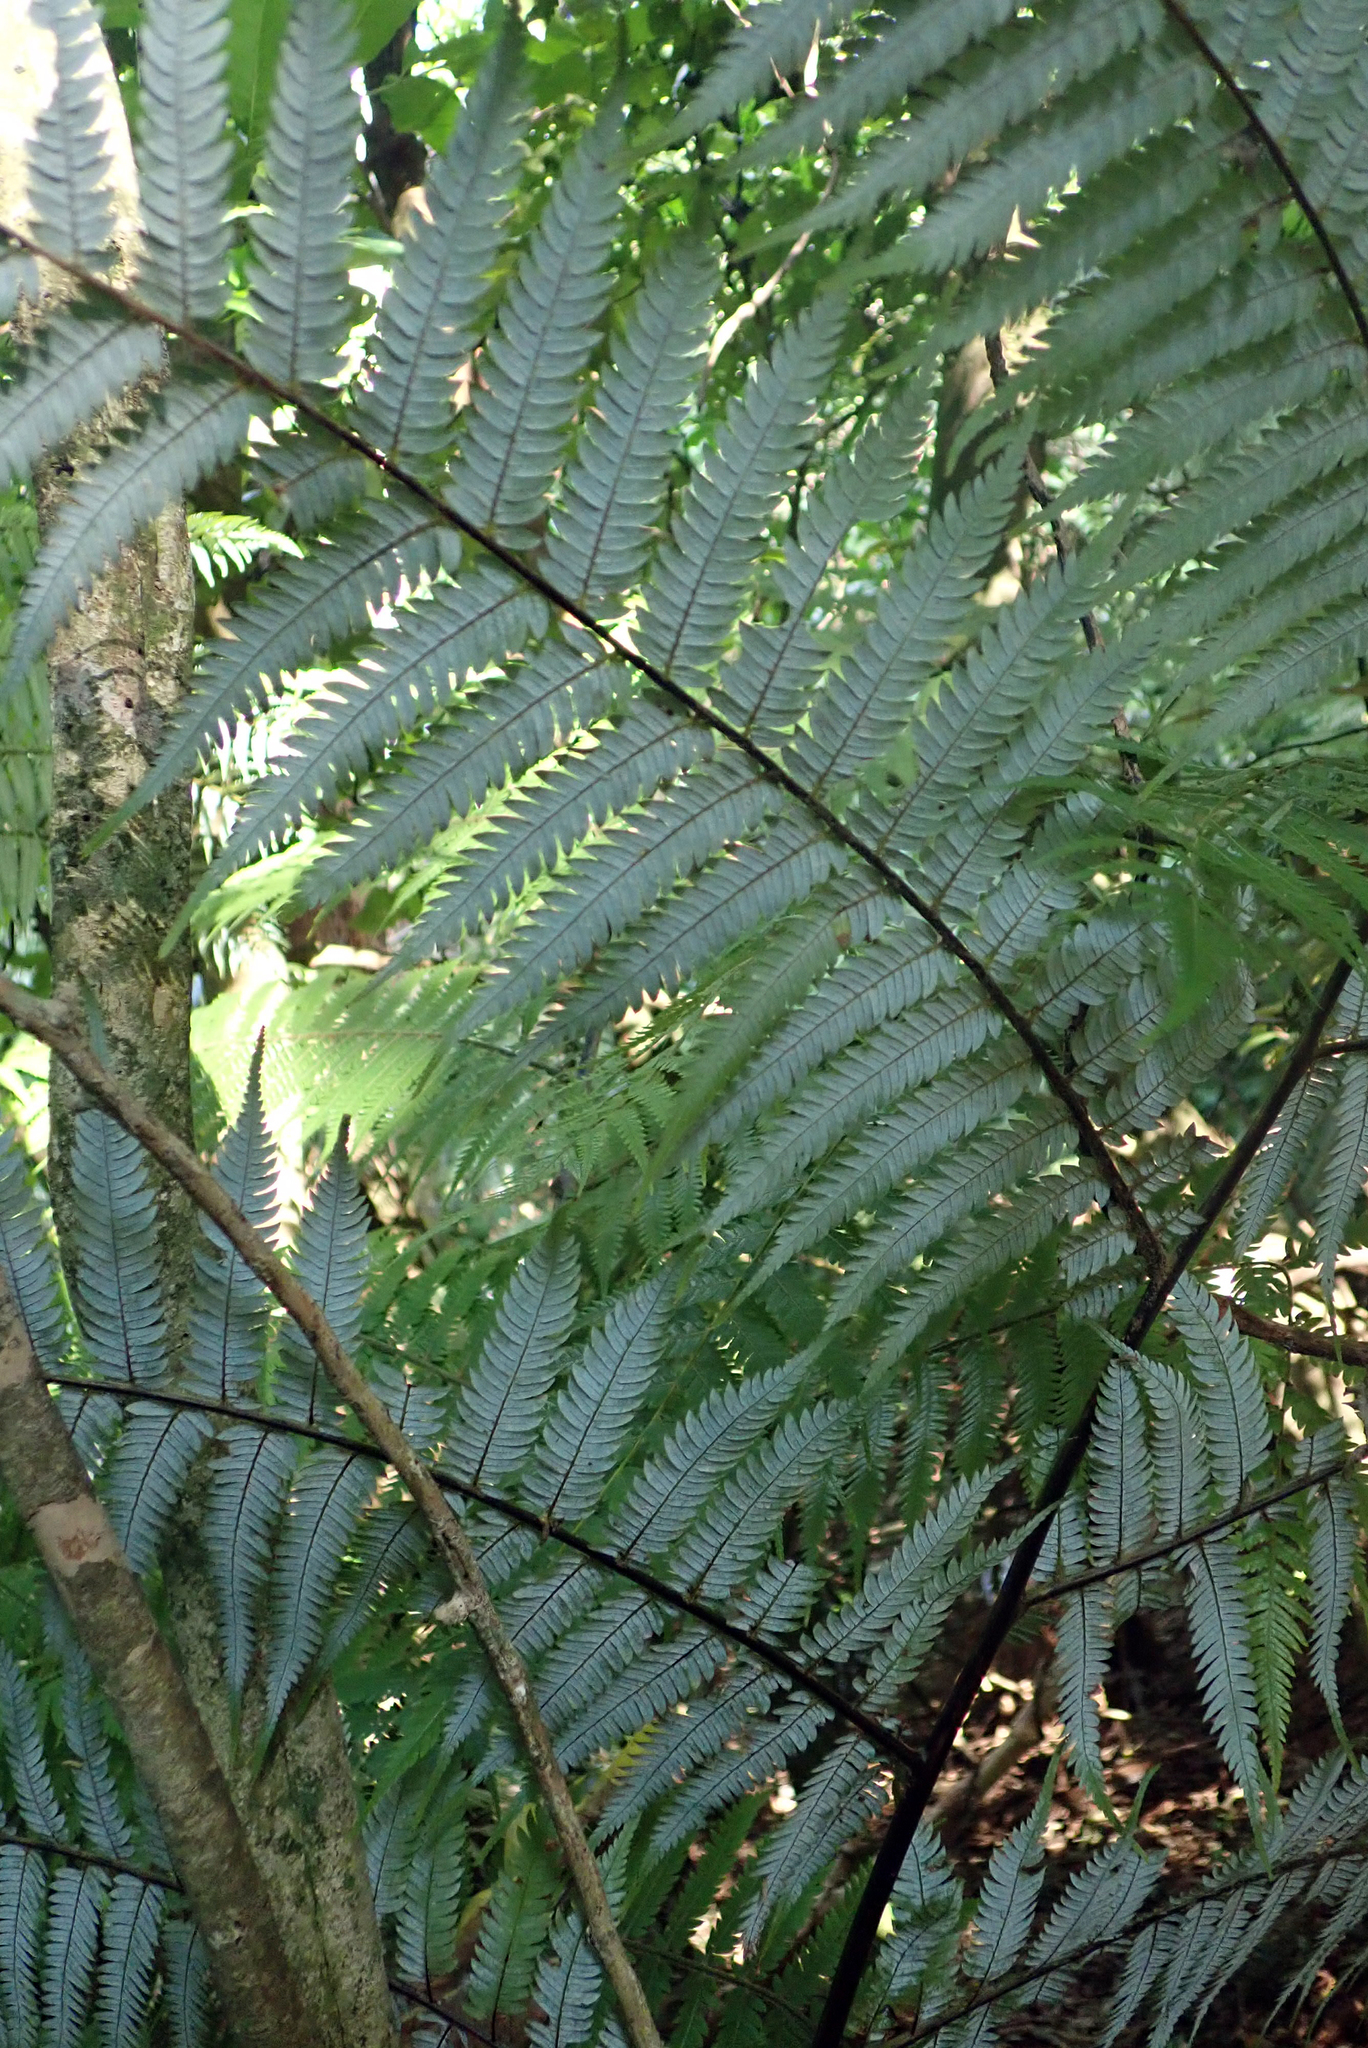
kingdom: Plantae
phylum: Tracheophyta
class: Polypodiopsida
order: Cyatheales
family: Cyatheaceae
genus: Alsophila
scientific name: Alsophila dealbata
